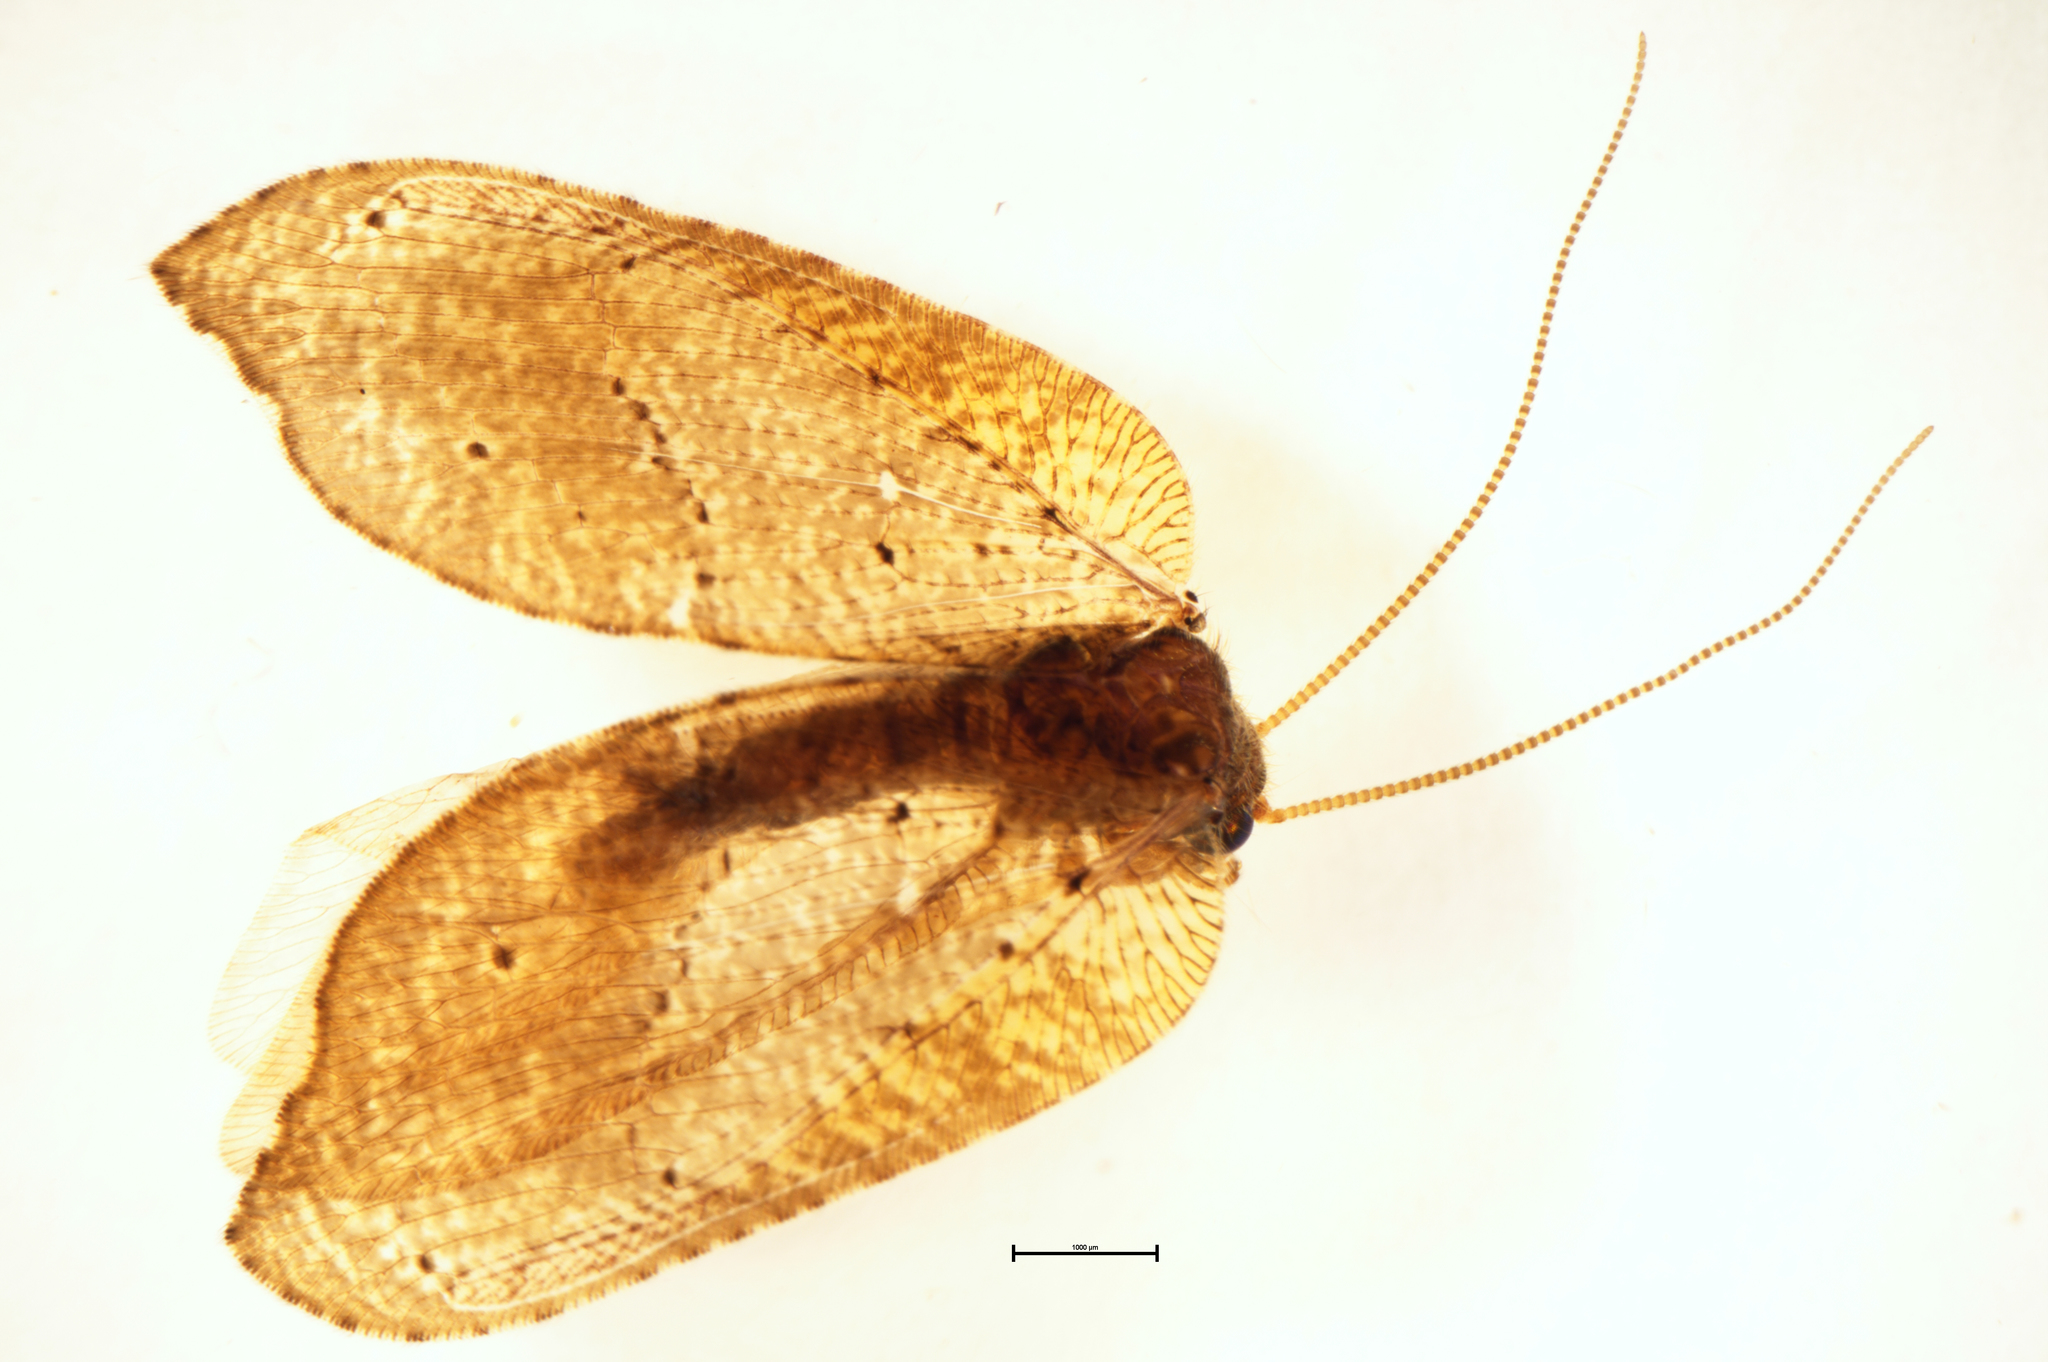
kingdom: Animalia
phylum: Arthropoda
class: Insecta
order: Neuroptera
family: Hemerobiidae
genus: Drepanacra
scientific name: Drepanacra binocula
